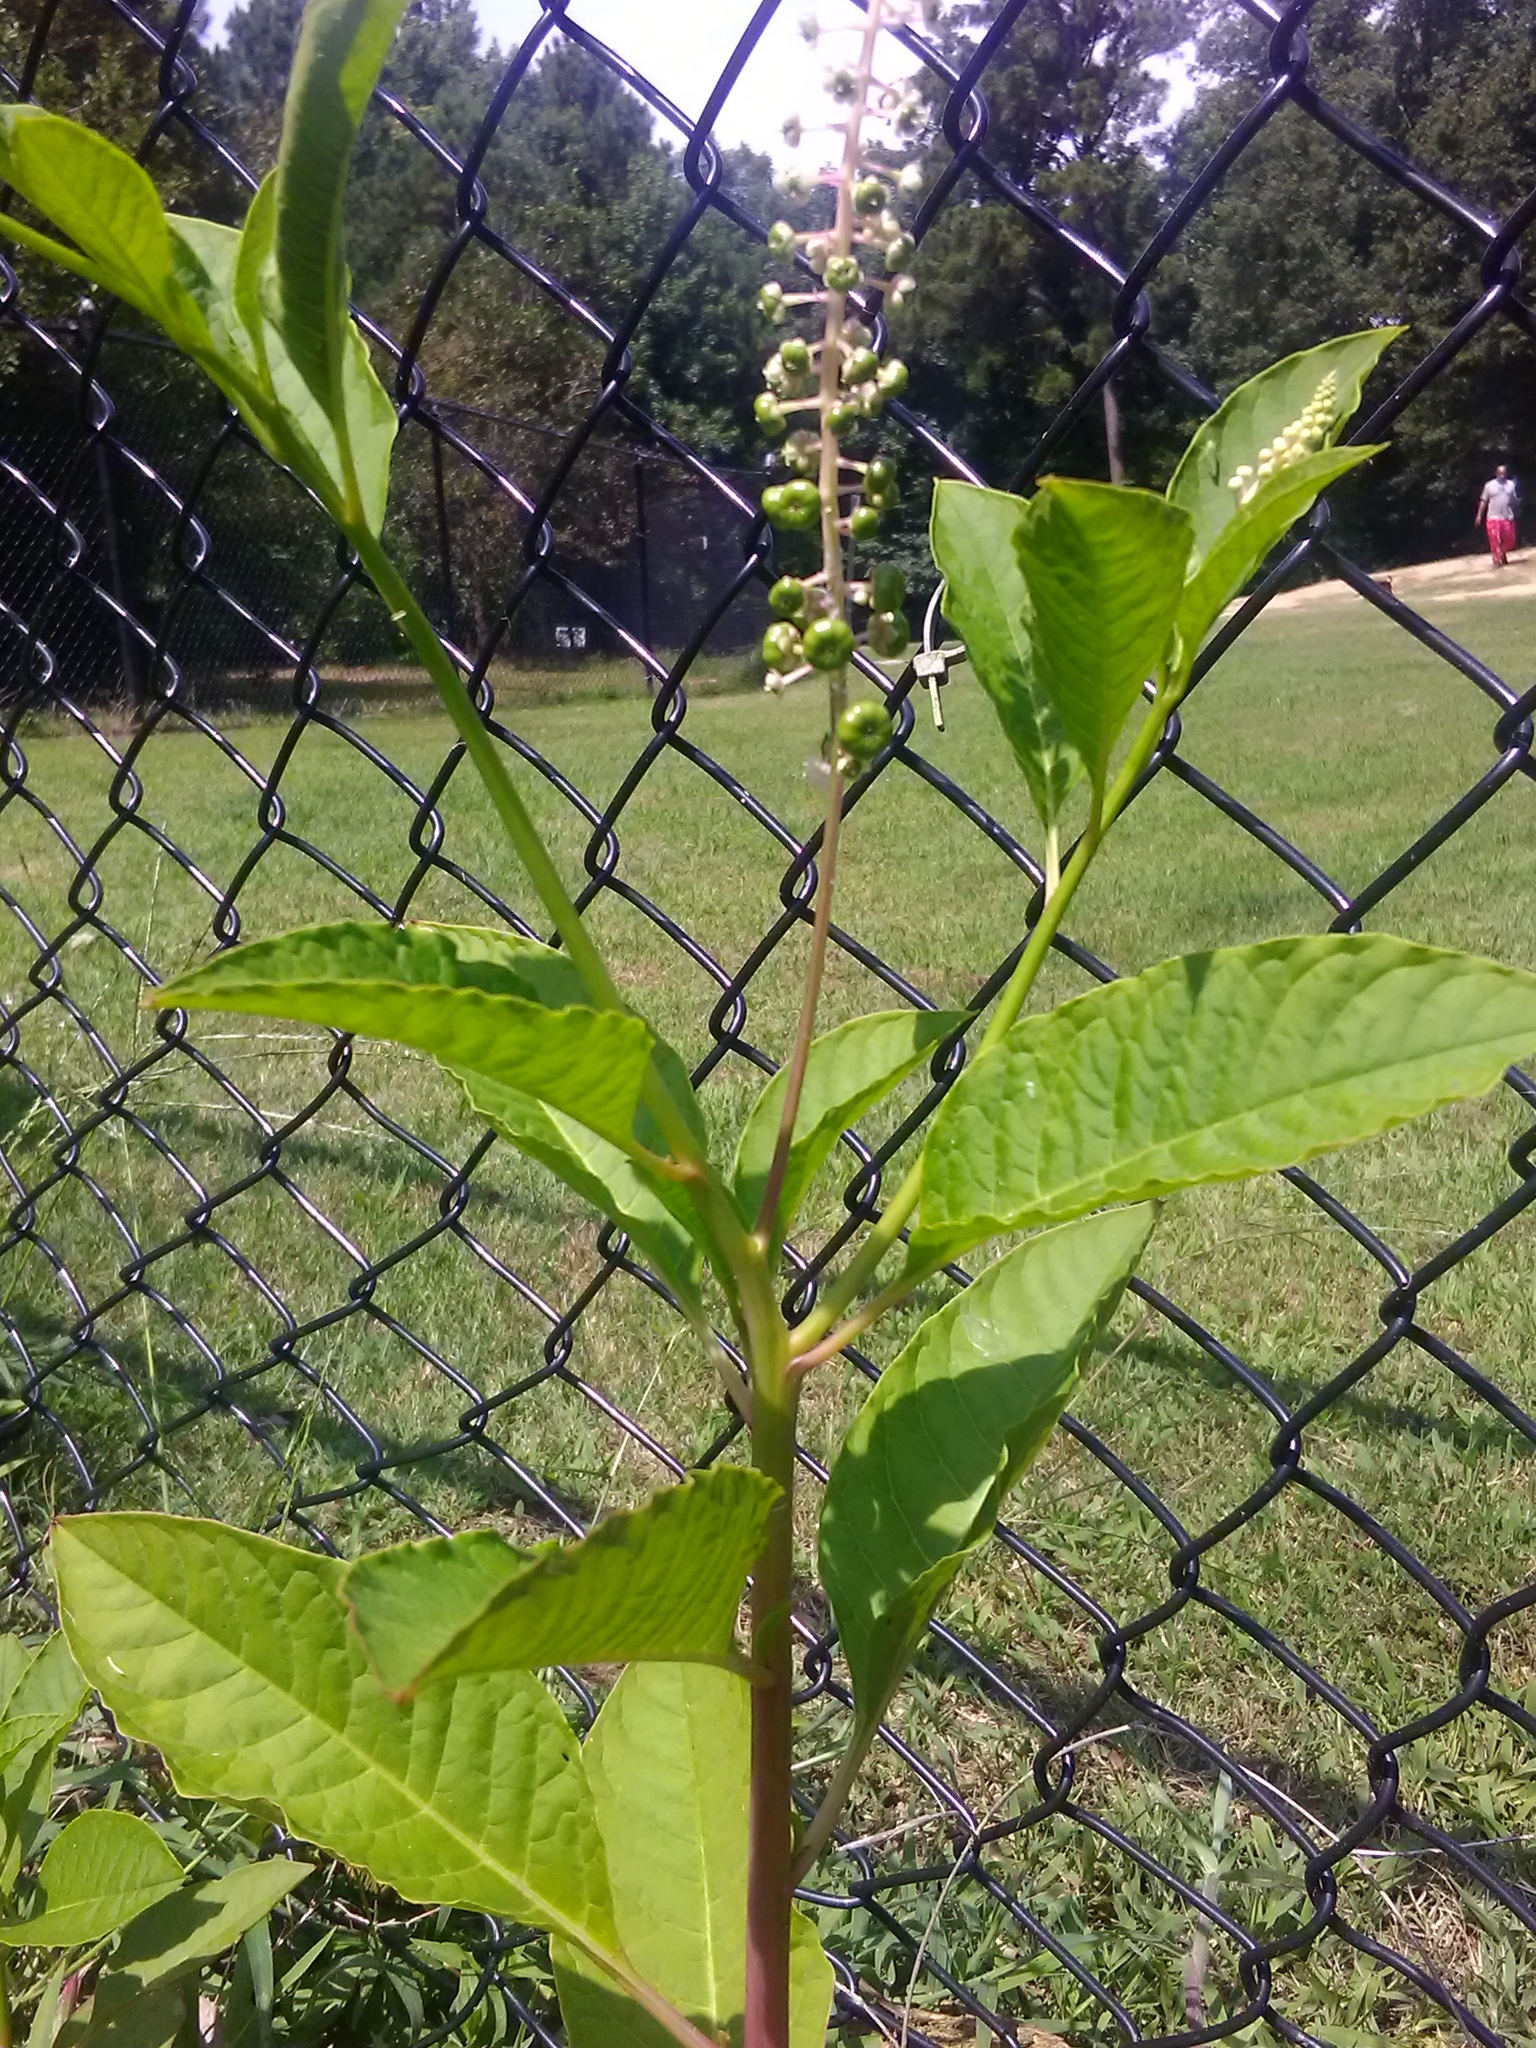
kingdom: Plantae
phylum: Tracheophyta
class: Magnoliopsida
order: Caryophyllales
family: Phytolaccaceae
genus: Phytolacca
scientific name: Phytolacca americana
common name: American pokeweed
